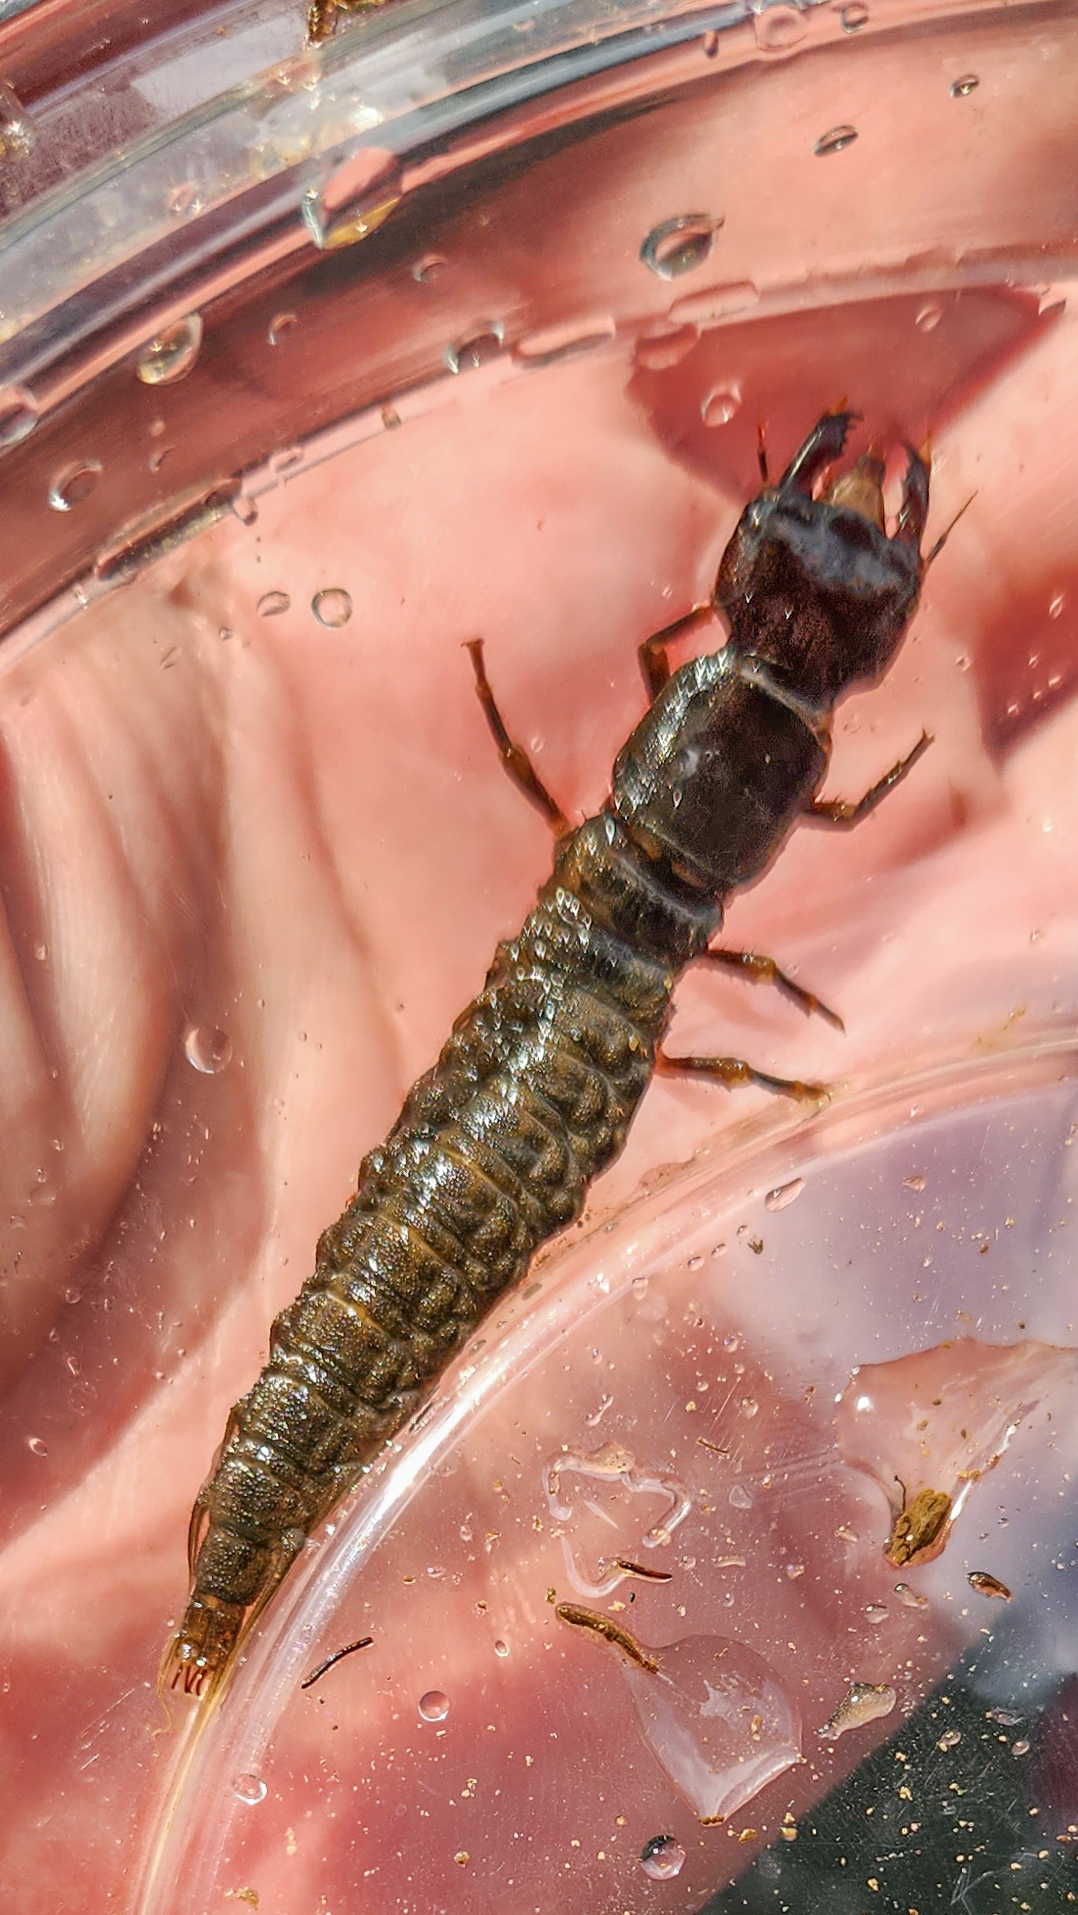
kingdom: Animalia
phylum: Arthropoda
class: Insecta
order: Megaloptera
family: Corydalidae
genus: Corydalus
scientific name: Corydalus cornutus
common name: Dobsonfly
